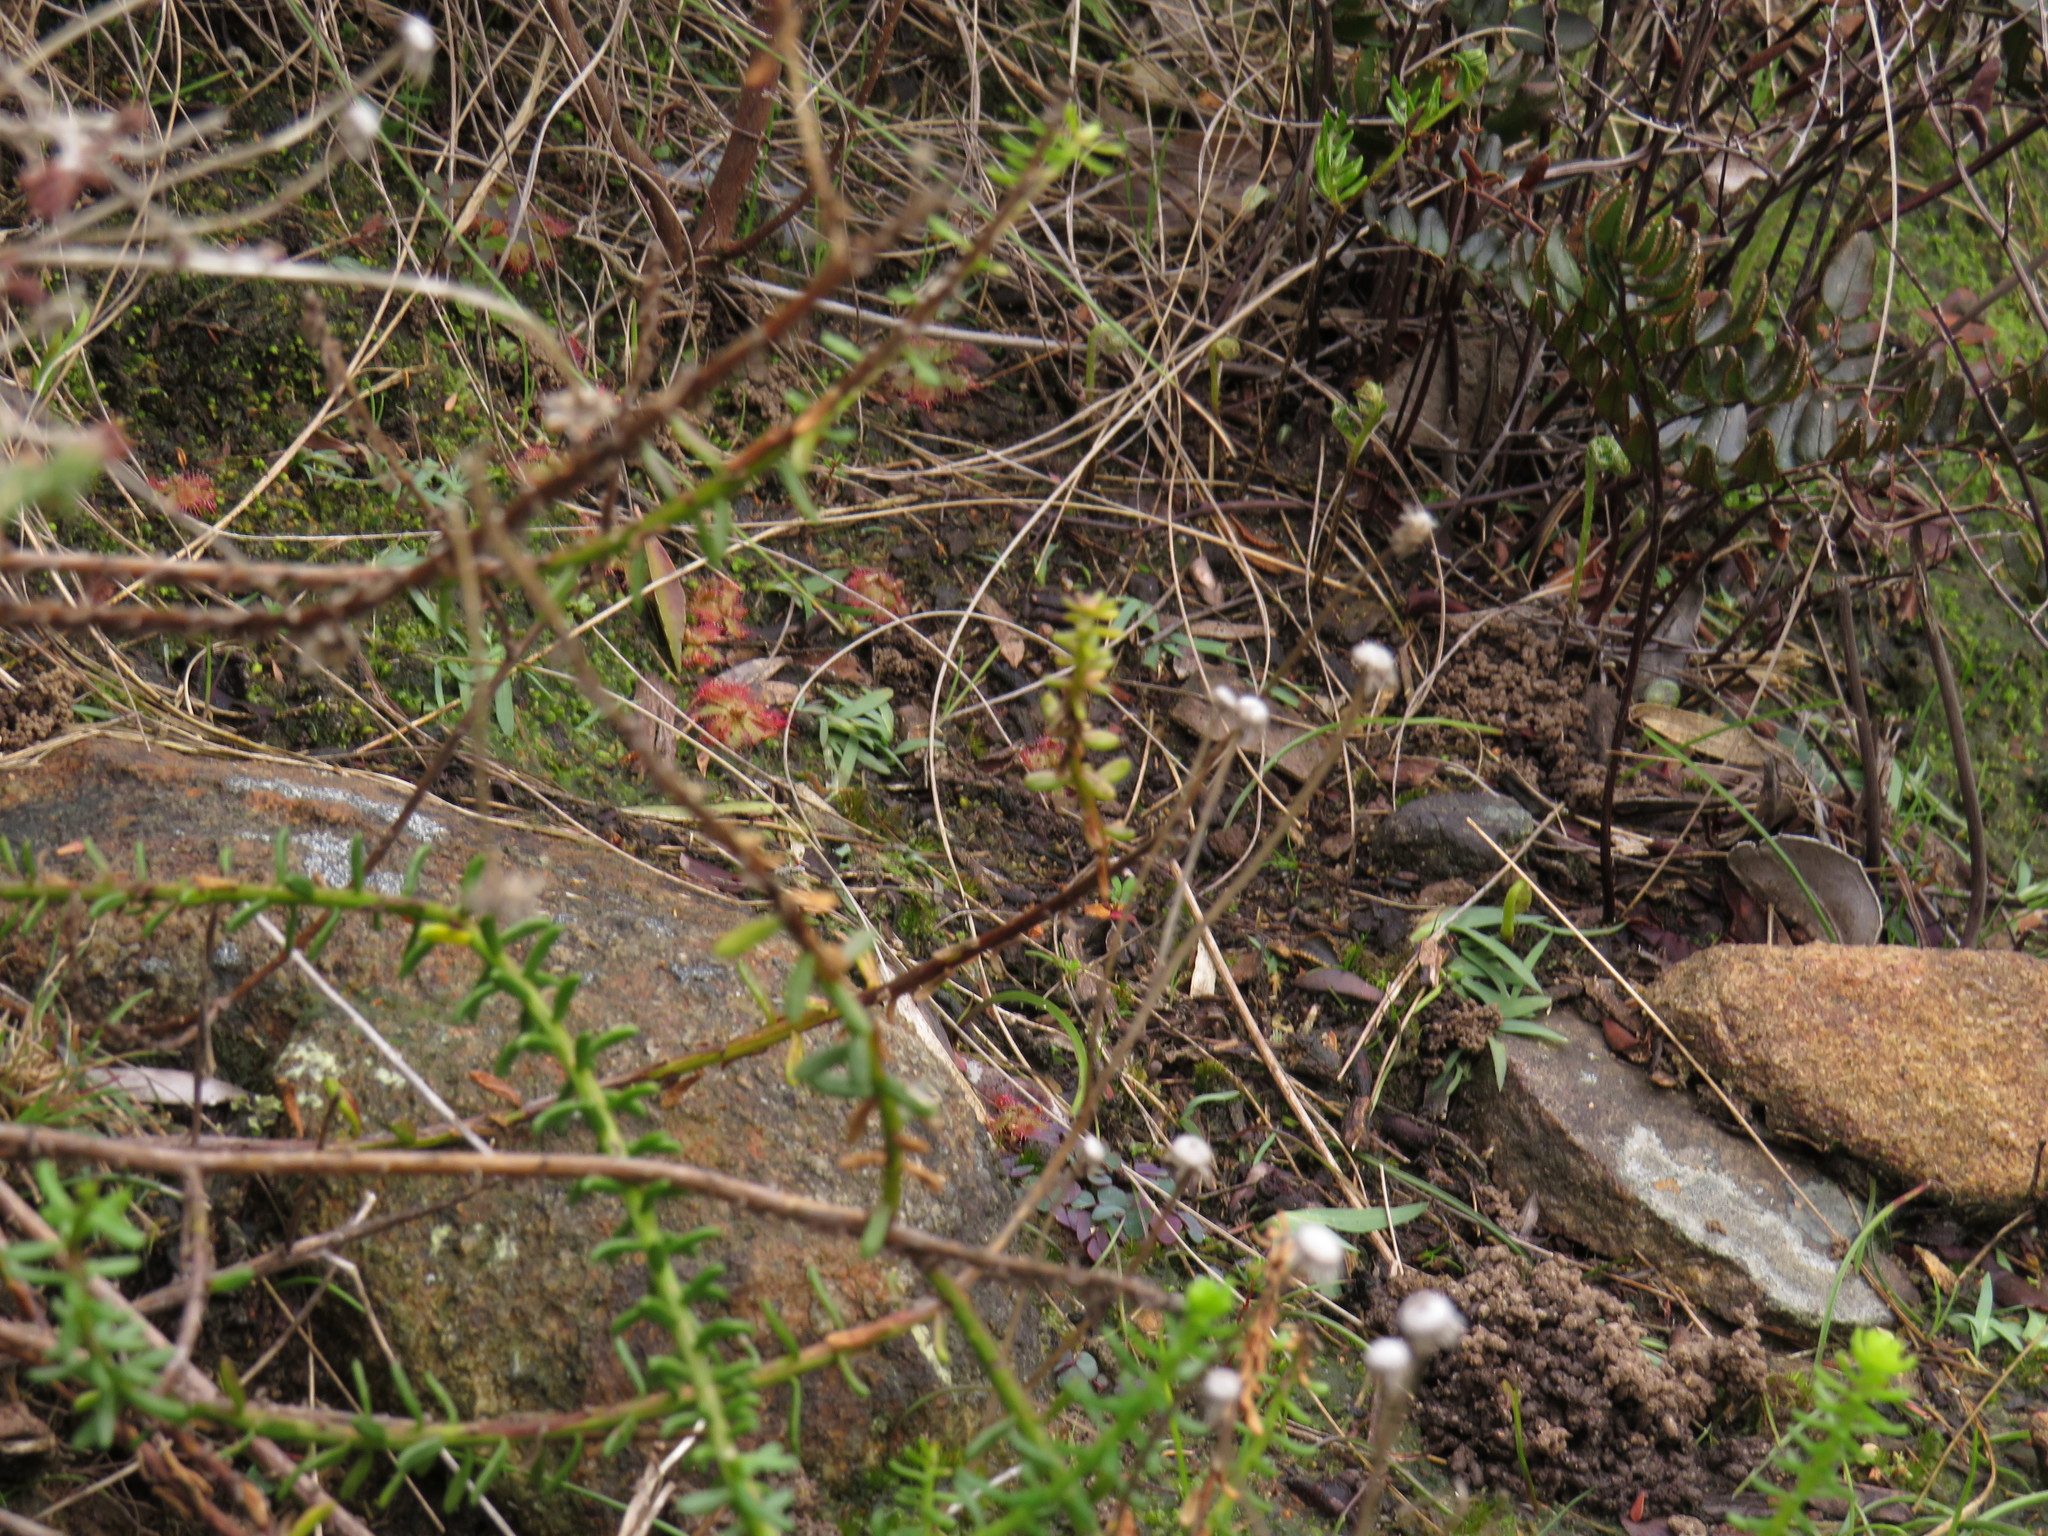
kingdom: Plantae
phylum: Tracheophyta
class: Magnoliopsida
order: Caryophyllales
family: Droseraceae
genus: Drosera
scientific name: Drosera trinervia
